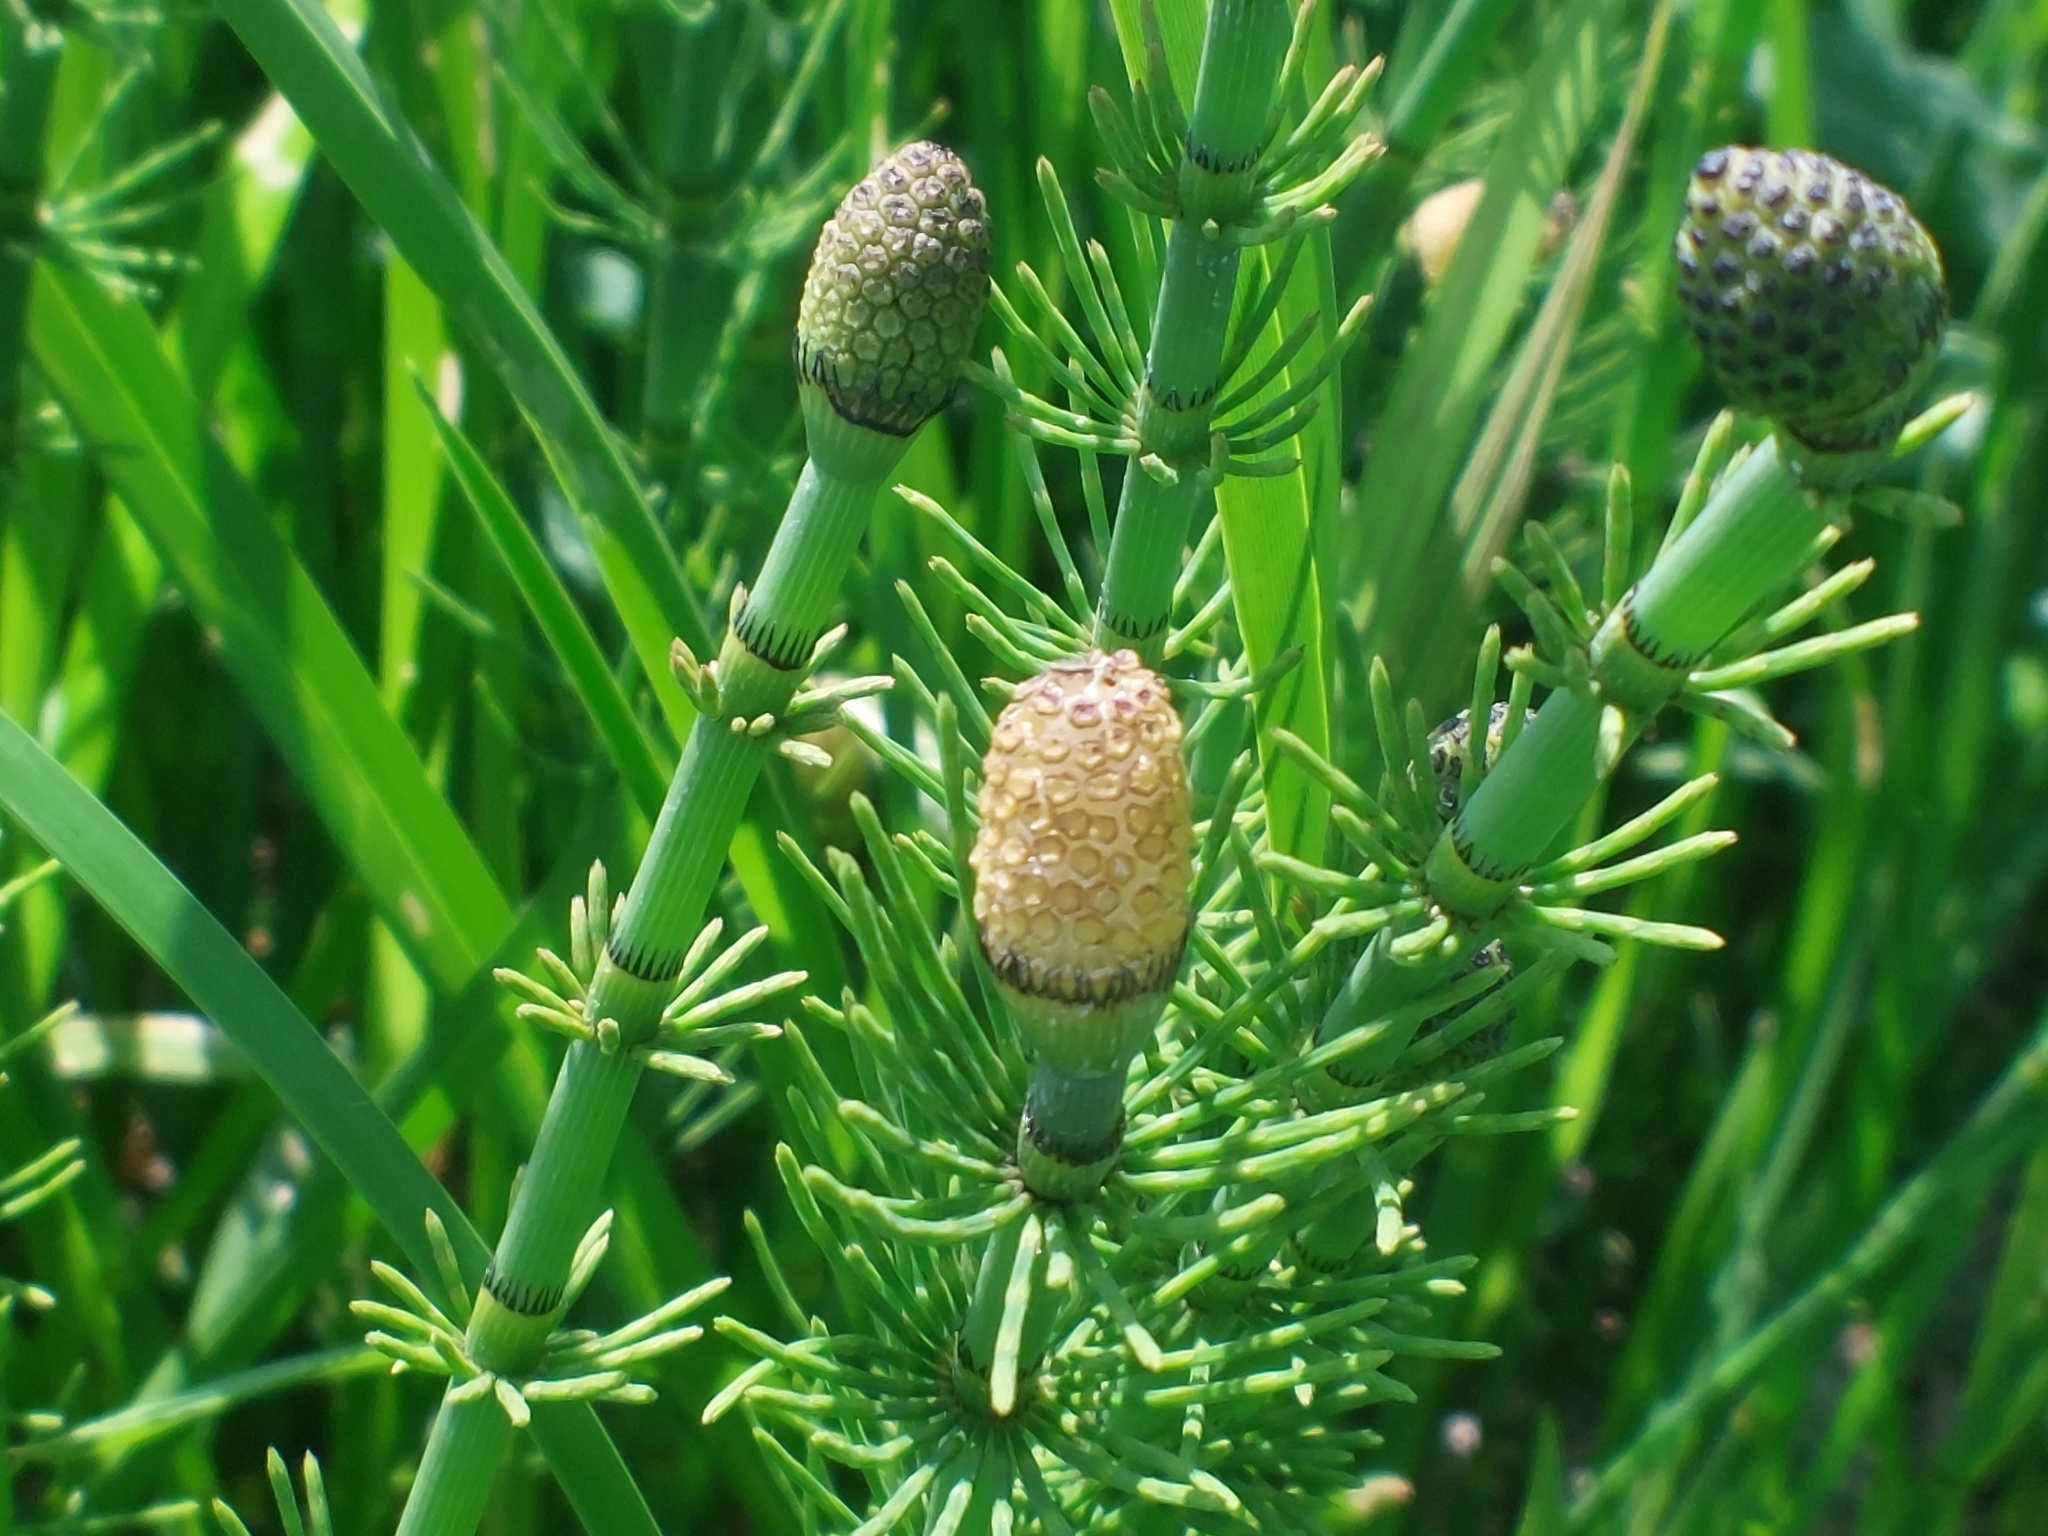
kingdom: Plantae
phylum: Tracheophyta
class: Polypodiopsida
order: Equisetales
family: Equisetaceae
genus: Equisetum
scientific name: Equisetum fluviatile
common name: Water horsetail
